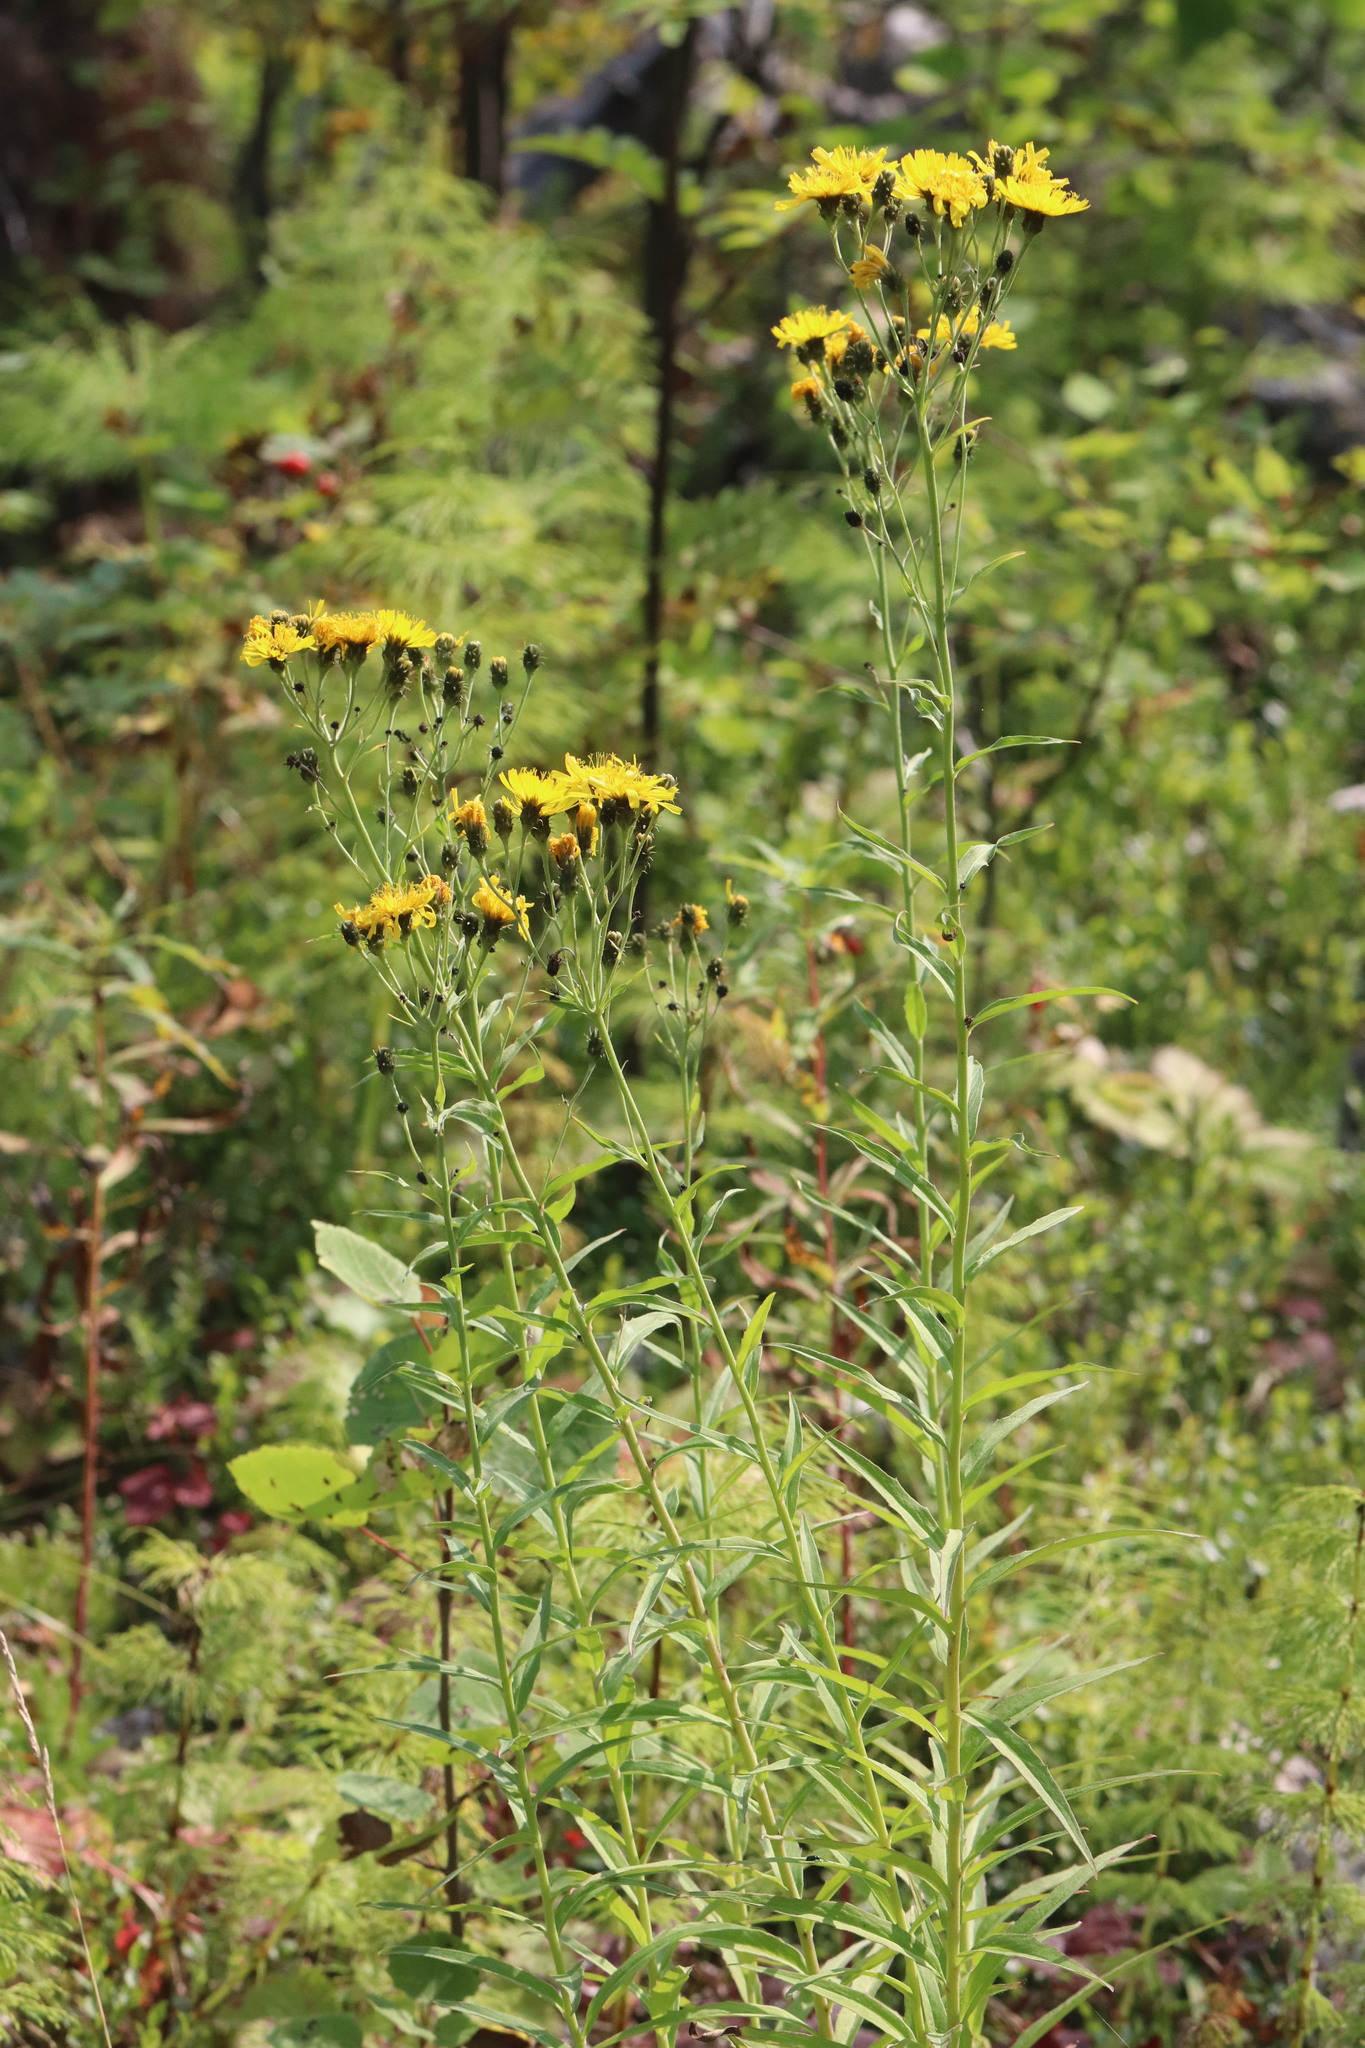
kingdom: Plantae
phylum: Tracheophyta
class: Magnoliopsida
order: Asterales
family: Asteraceae
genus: Hieracium
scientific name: Hieracium umbellatum
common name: Northern hawkweed
